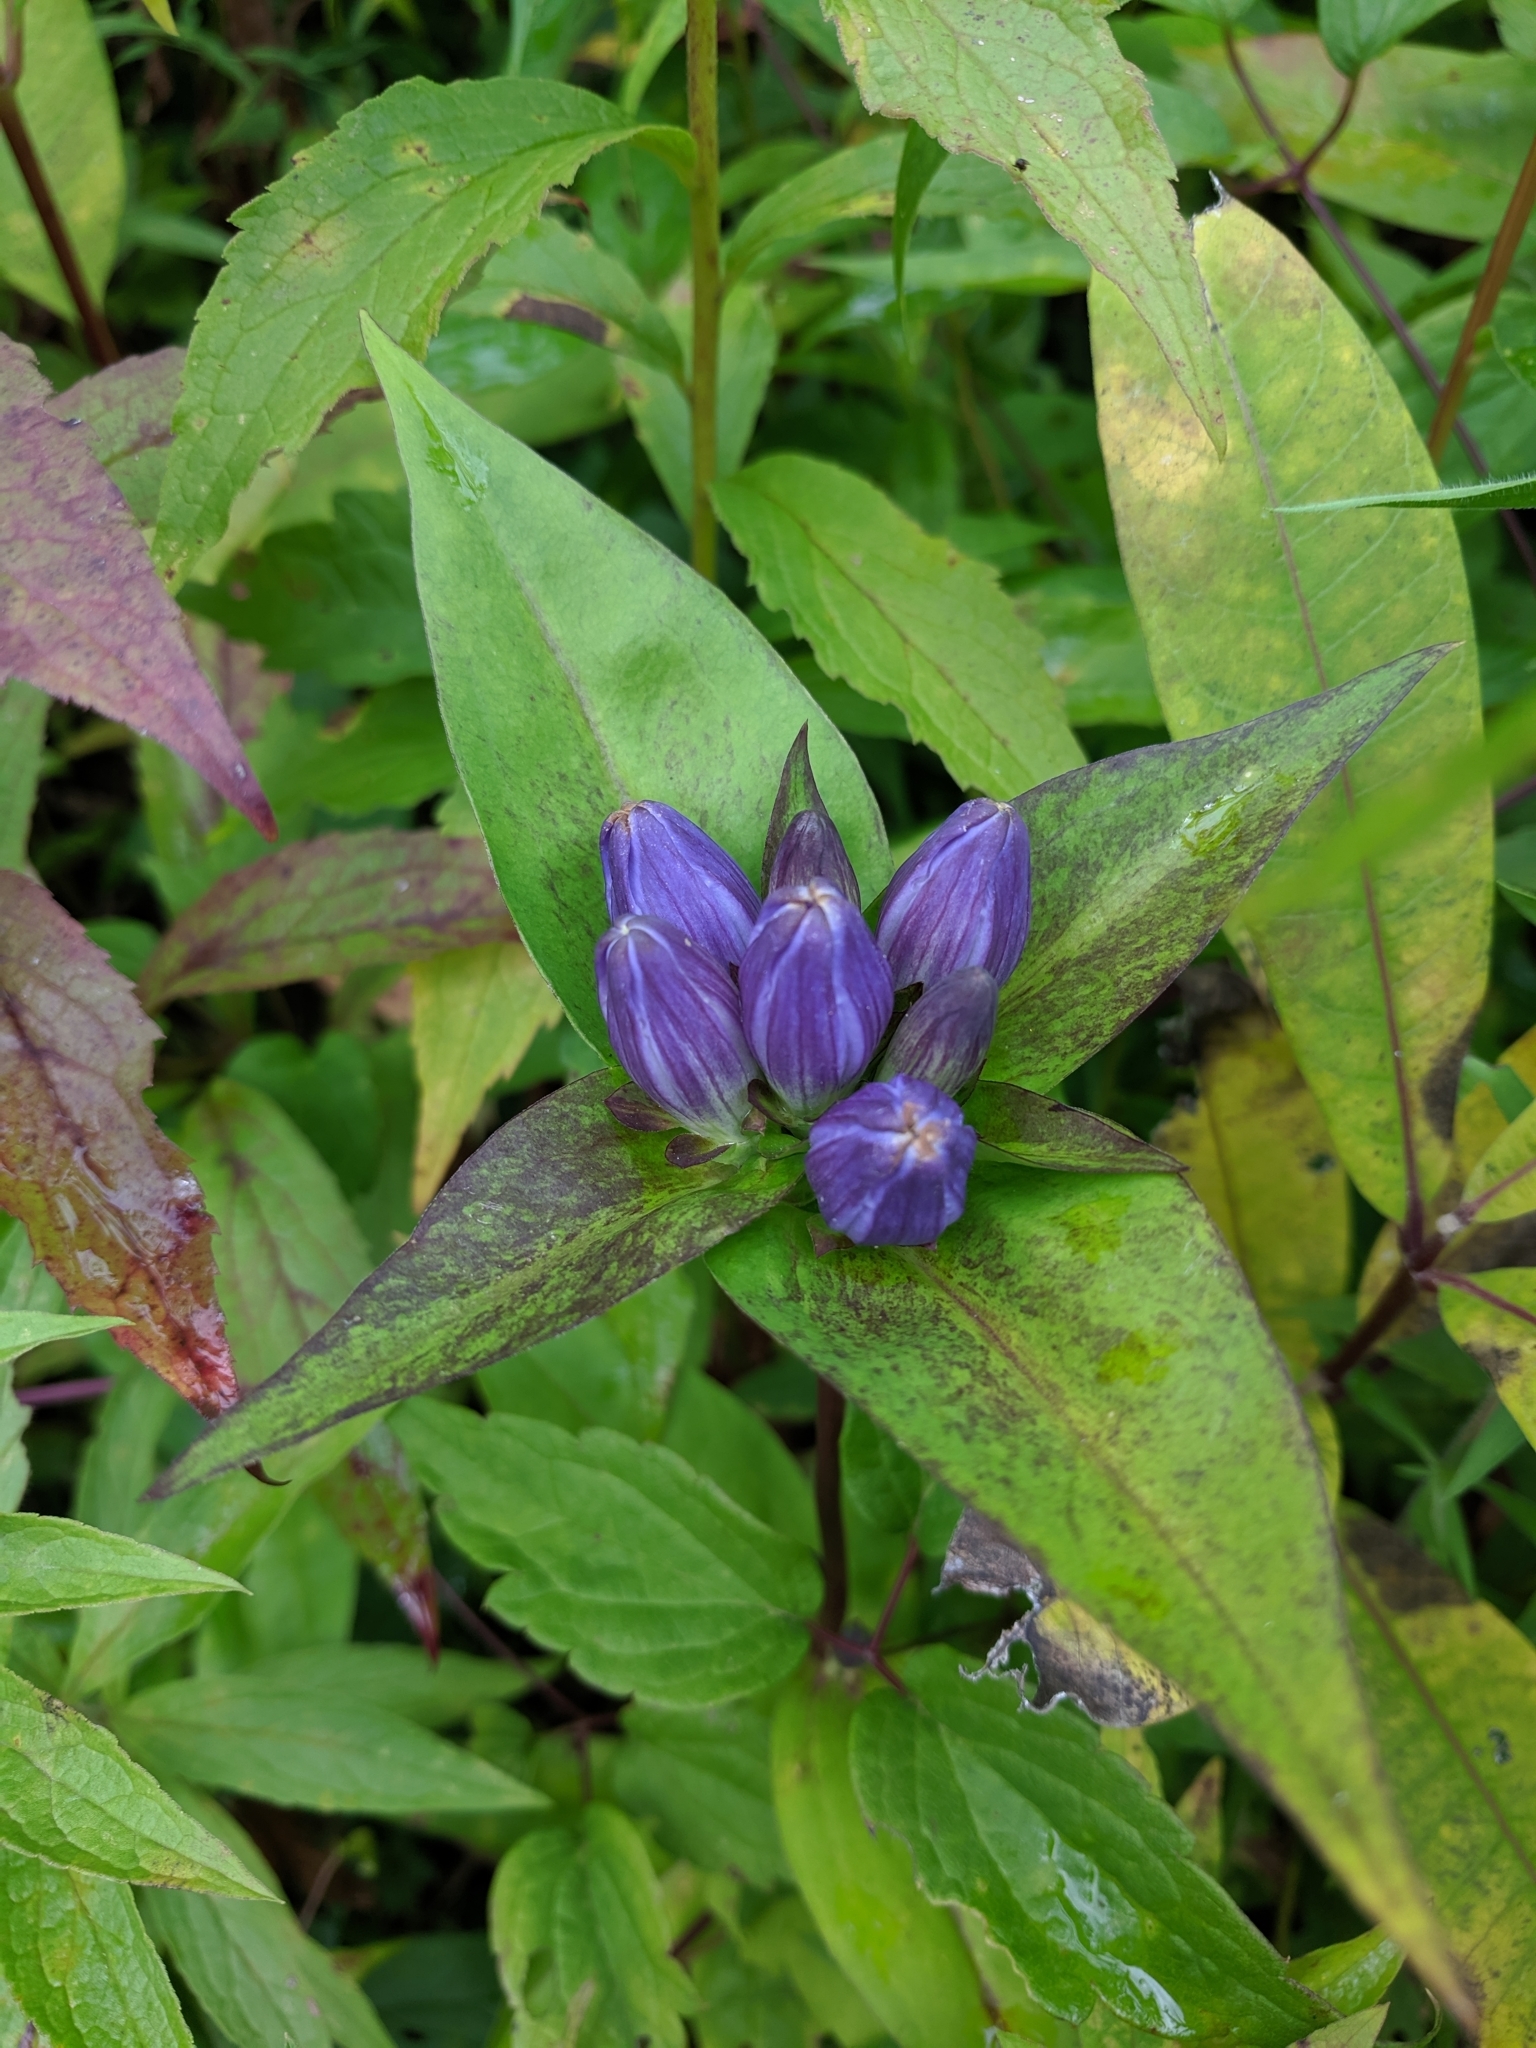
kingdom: Plantae
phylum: Tracheophyta
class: Magnoliopsida
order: Gentianales
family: Gentianaceae
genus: Gentiana
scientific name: Gentiana clausa
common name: Blind gentian
